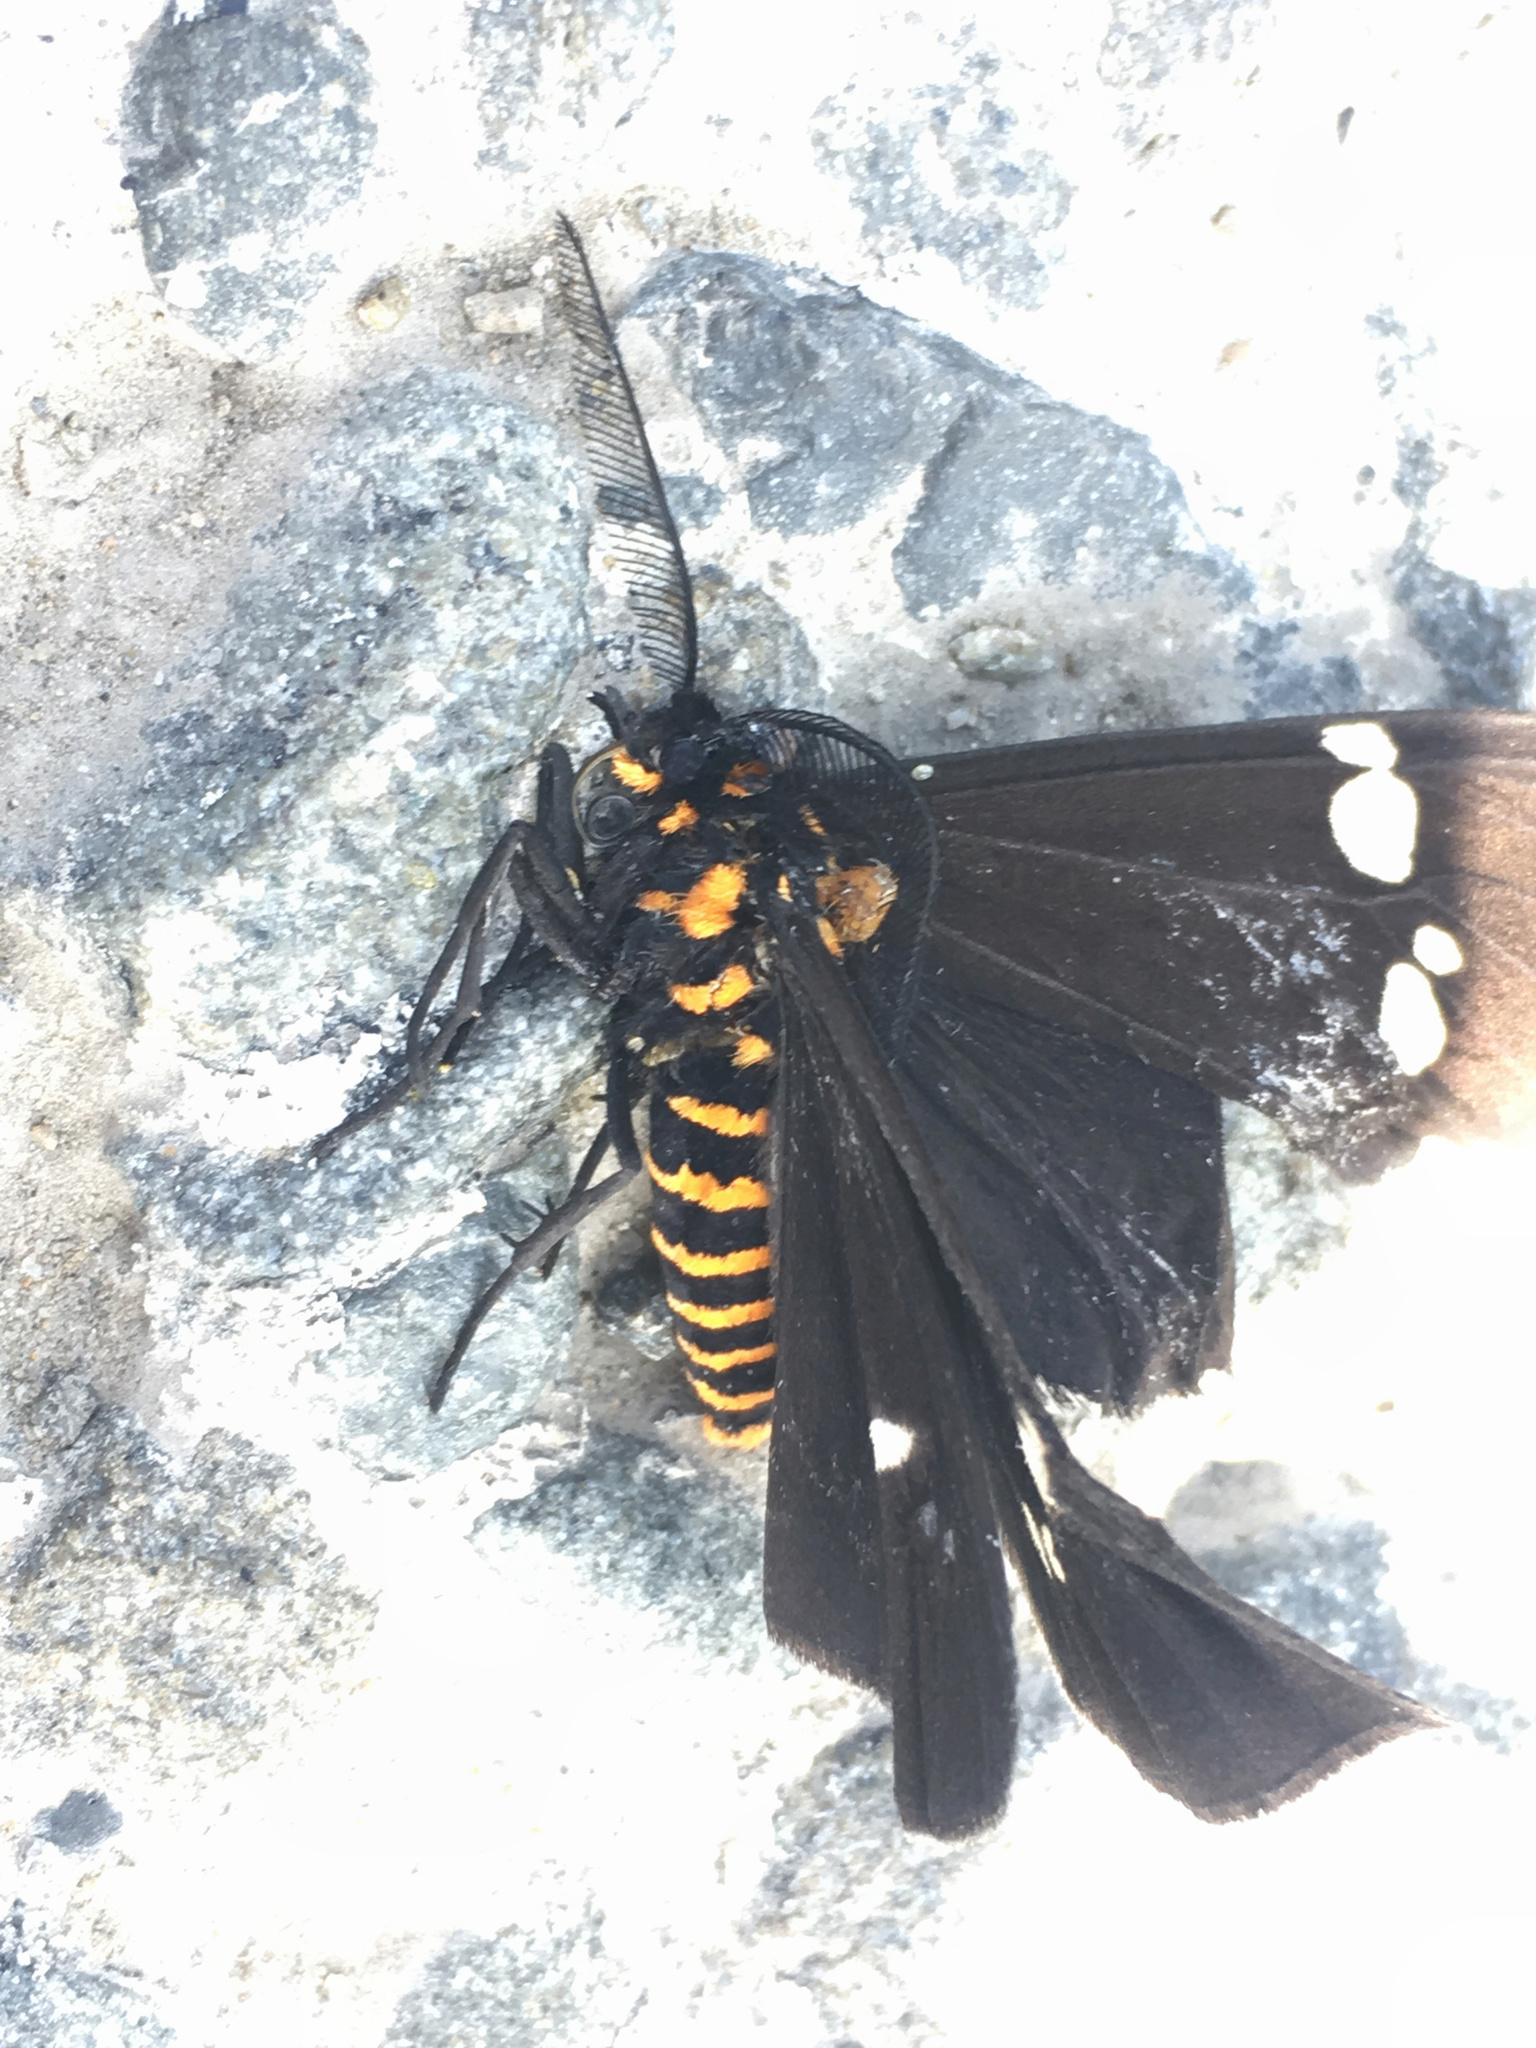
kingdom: Animalia
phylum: Arthropoda
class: Insecta
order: Lepidoptera
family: Erebidae
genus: Nyctemera
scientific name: Nyctemera annulatum
